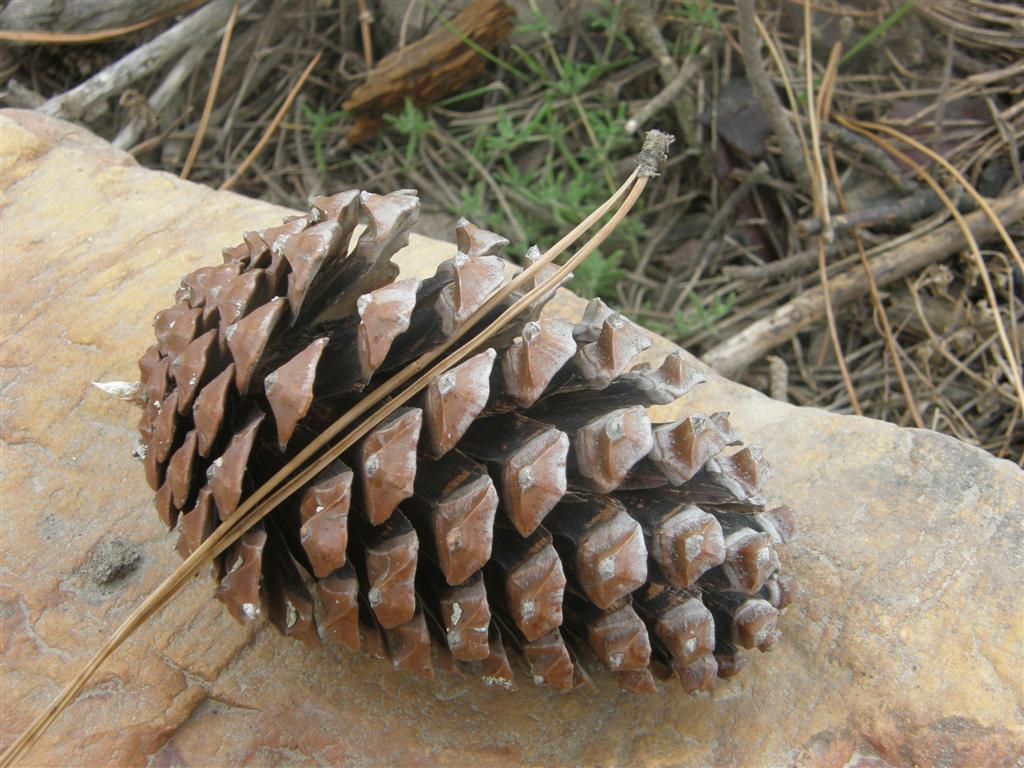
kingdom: Plantae
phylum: Tracheophyta
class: Pinopsida
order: Pinales
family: Pinaceae
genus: Pinus
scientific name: Pinus pinaster
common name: Maritime pine
